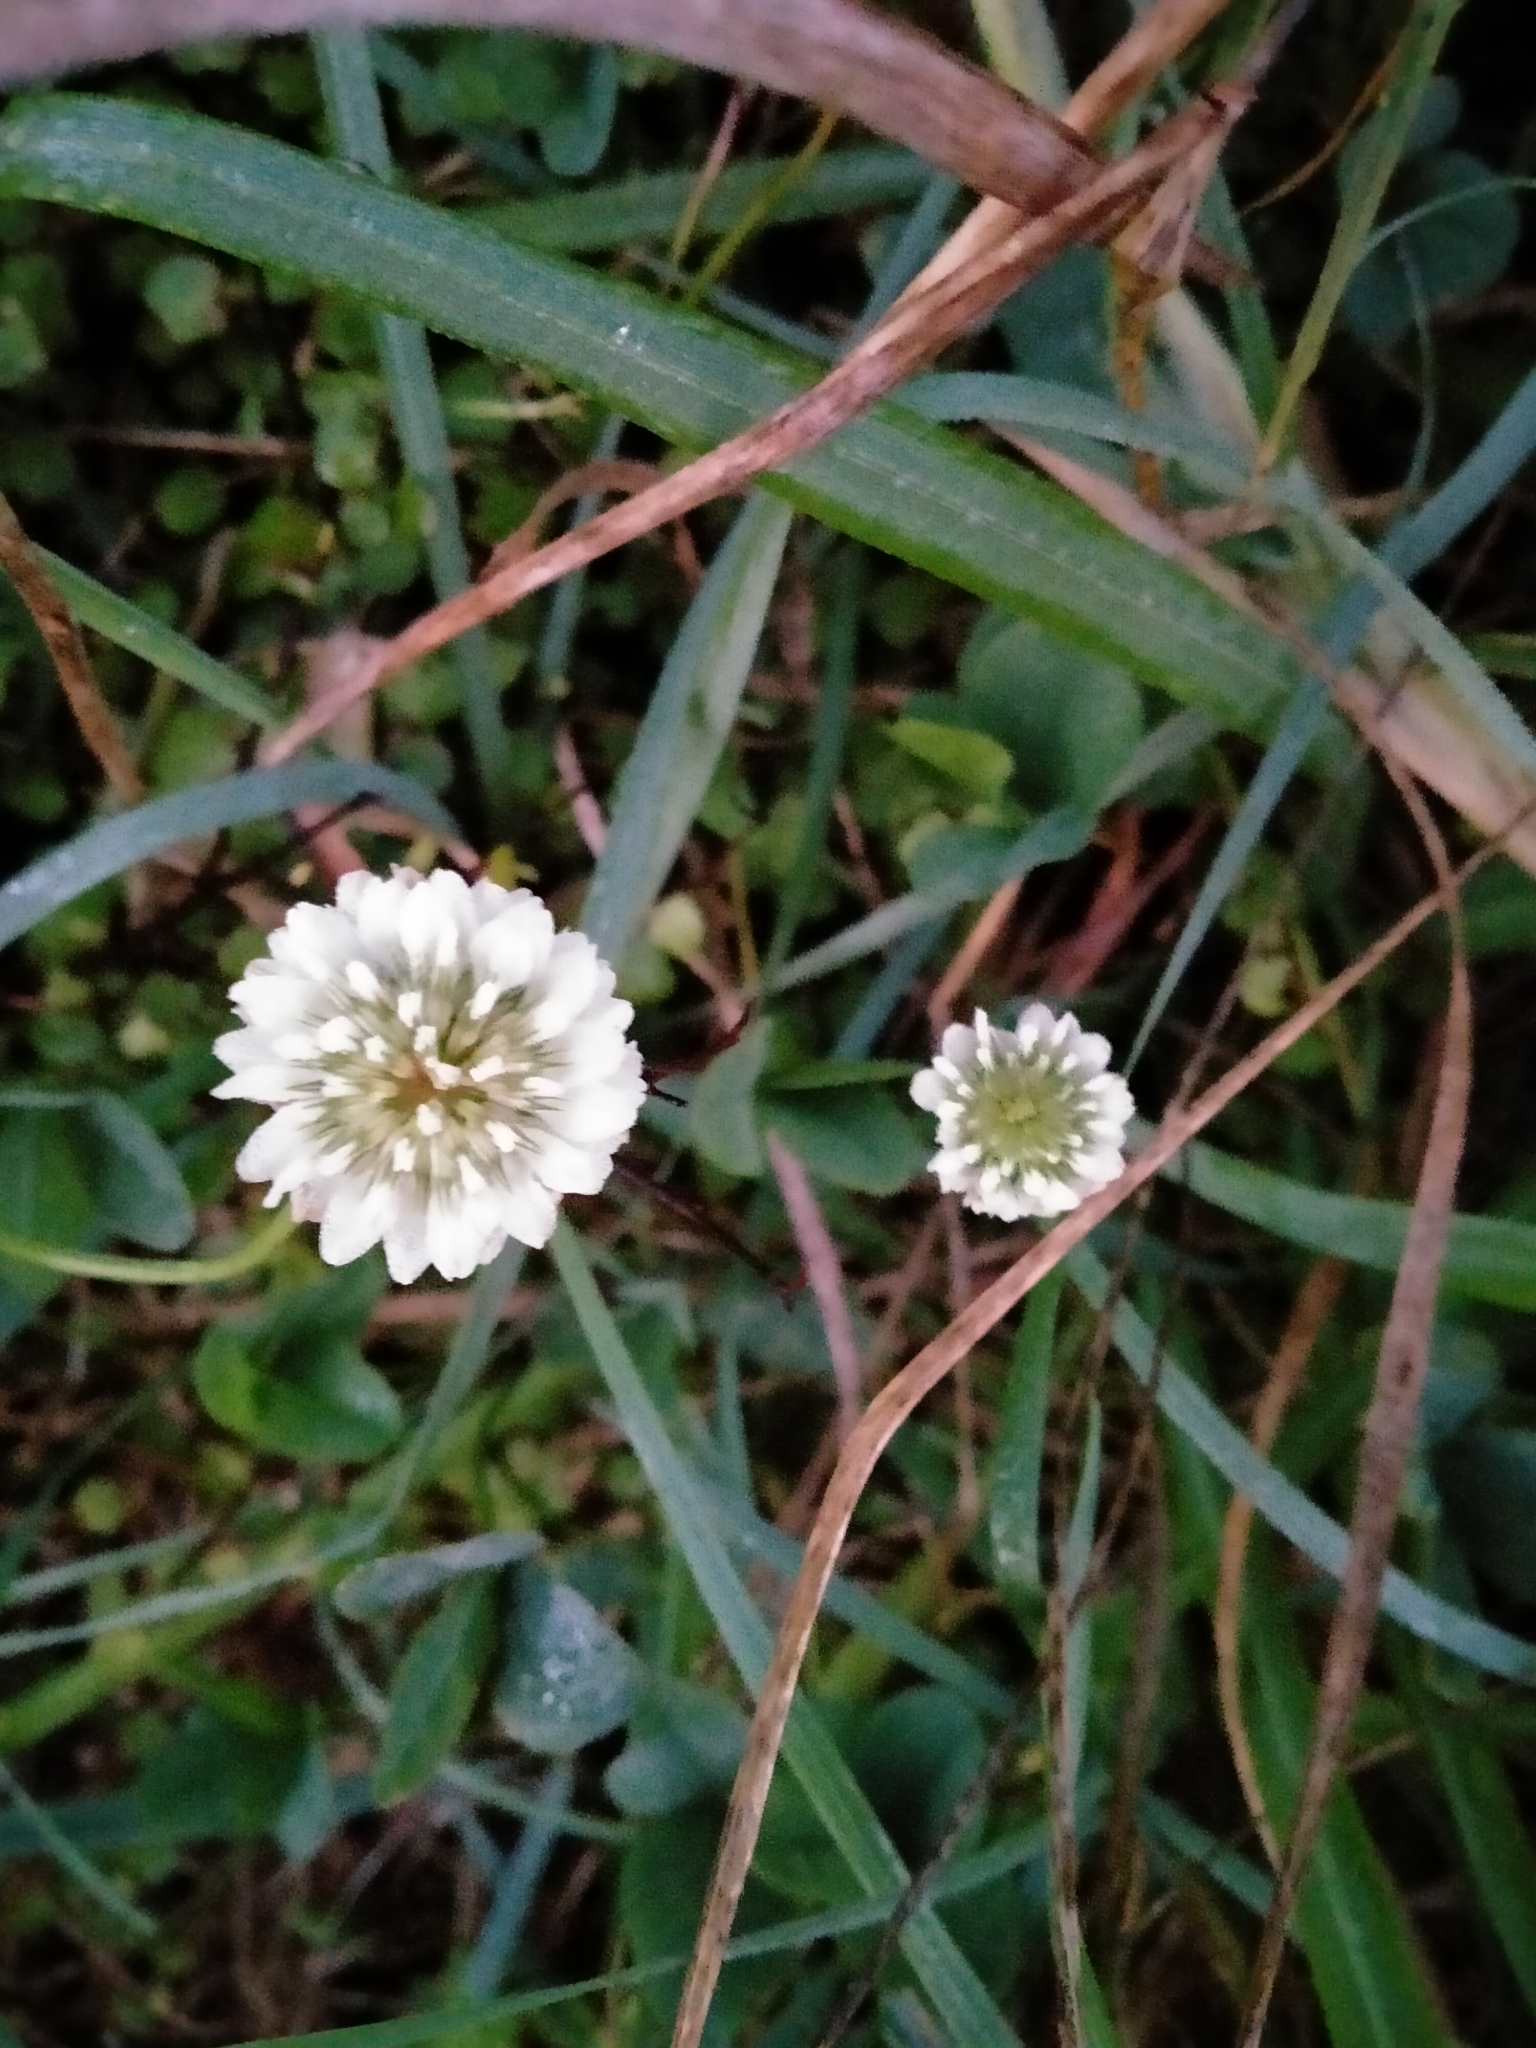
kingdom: Plantae
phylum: Tracheophyta
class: Magnoliopsida
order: Fabales
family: Fabaceae
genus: Trifolium
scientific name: Trifolium repens
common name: White clover
